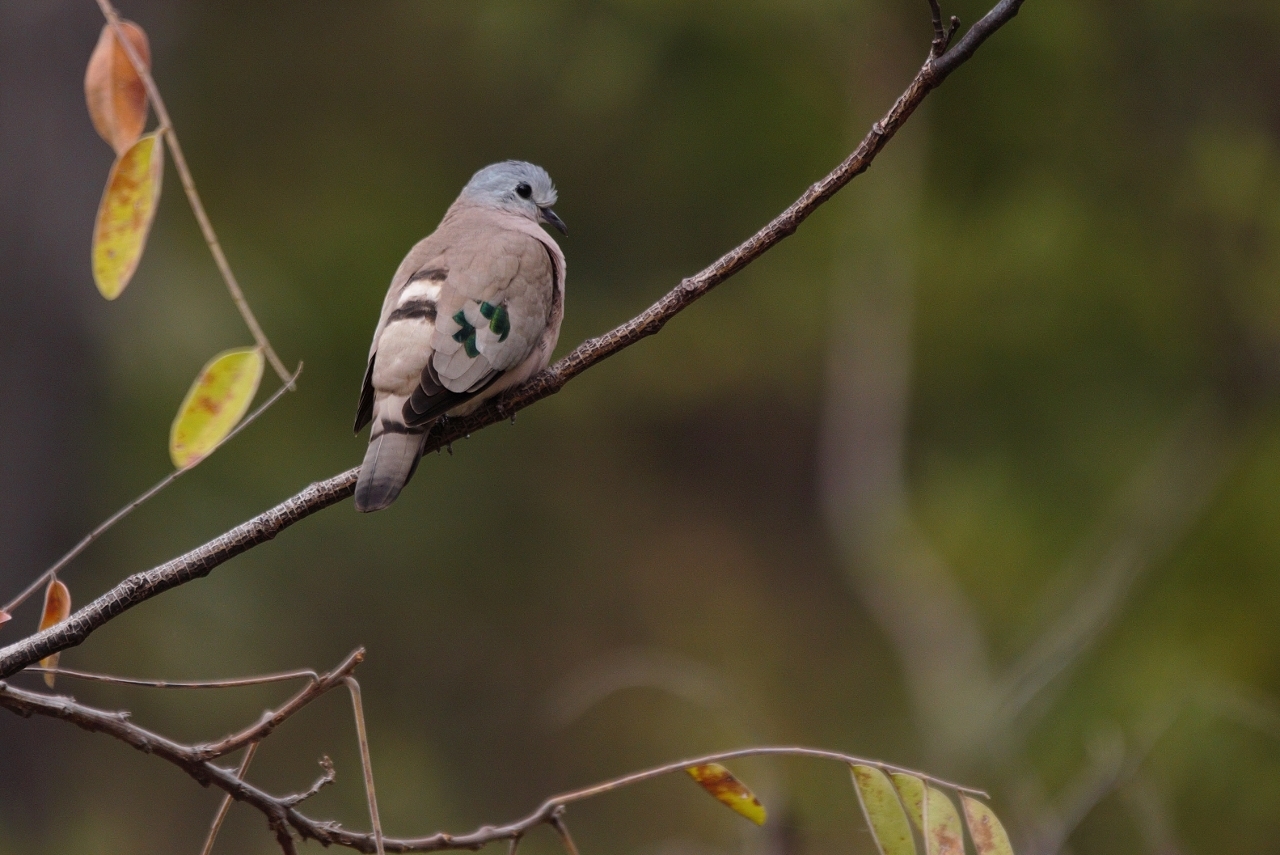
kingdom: Animalia
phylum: Chordata
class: Aves
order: Columbiformes
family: Columbidae
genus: Turtur
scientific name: Turtur chalcospilos
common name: Emerald-spotted wood dove
